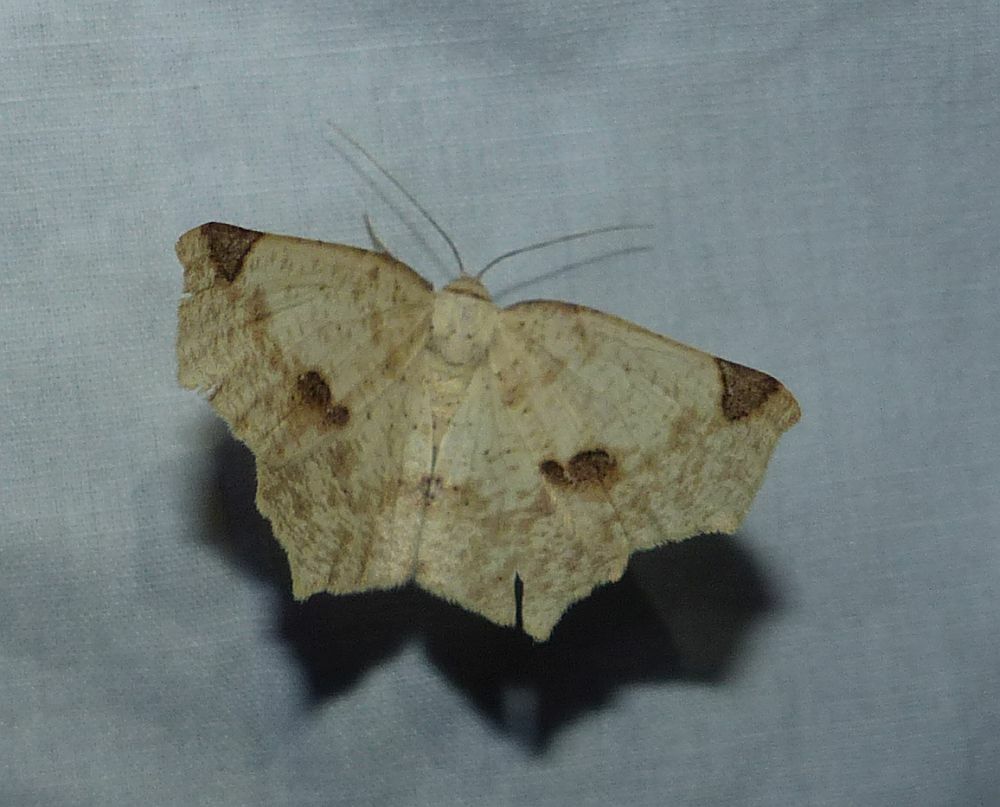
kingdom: Animalia
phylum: Arthropoda
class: Insecta
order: Lepidoptera
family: Geometridae
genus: Antepione
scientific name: Antepione thisoaria
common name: Variable antipione
